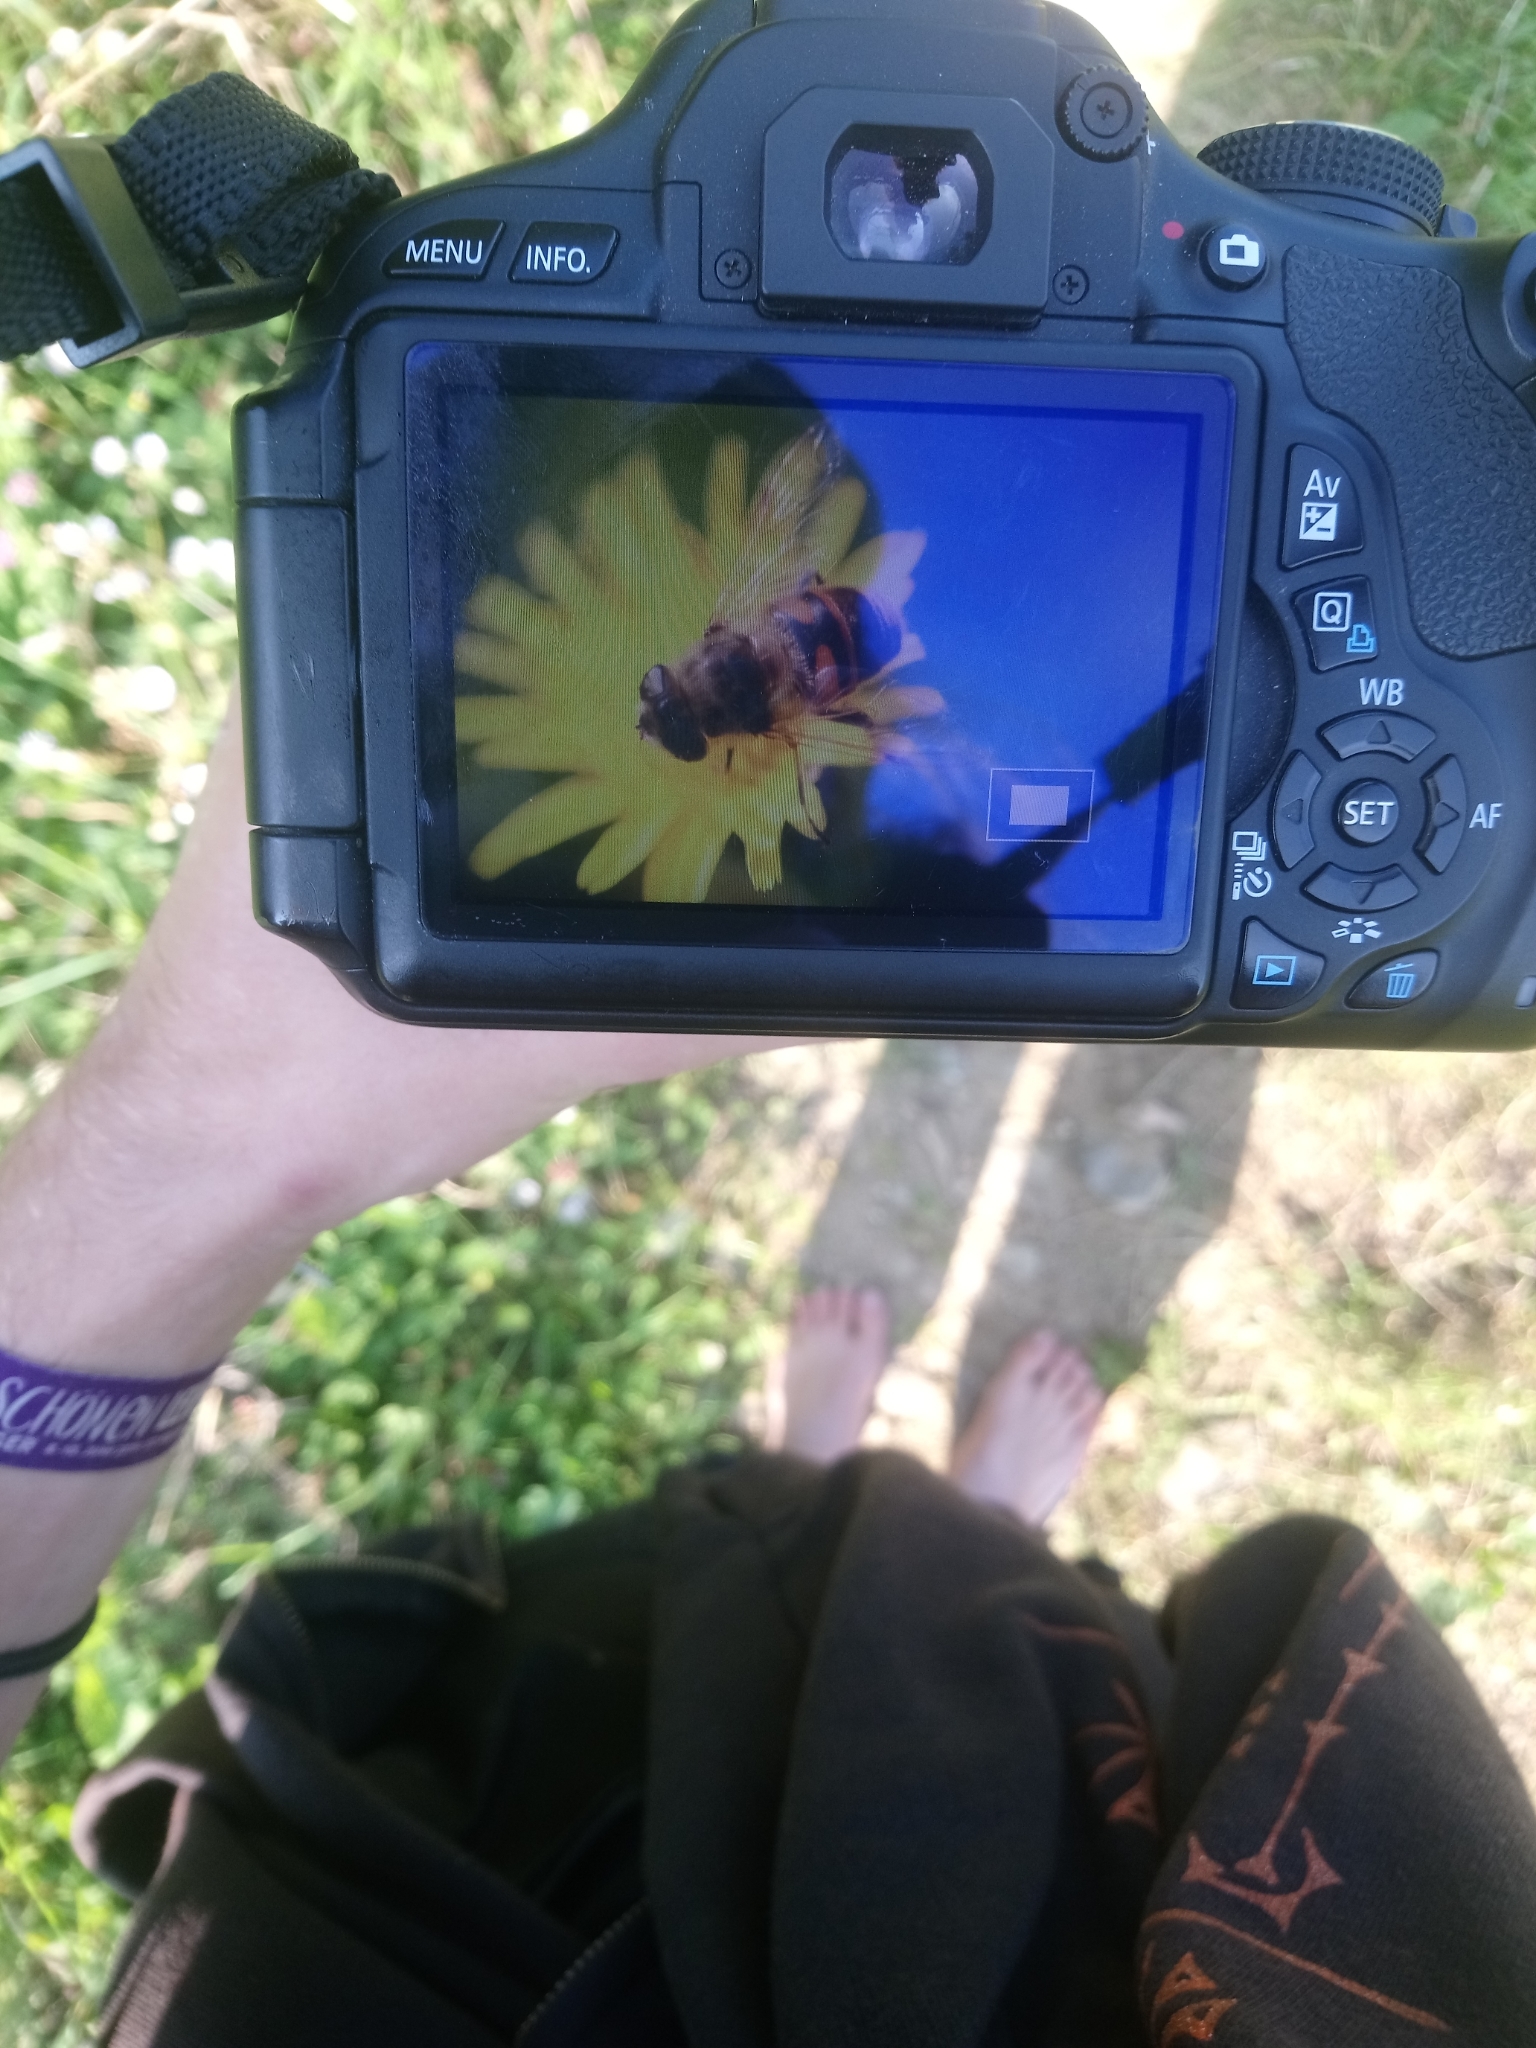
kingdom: Animalia
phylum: Arthropoda
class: Insecta
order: Diptera
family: Syrphidae
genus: Eristalis
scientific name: Eristalis tenax
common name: Drone fly
